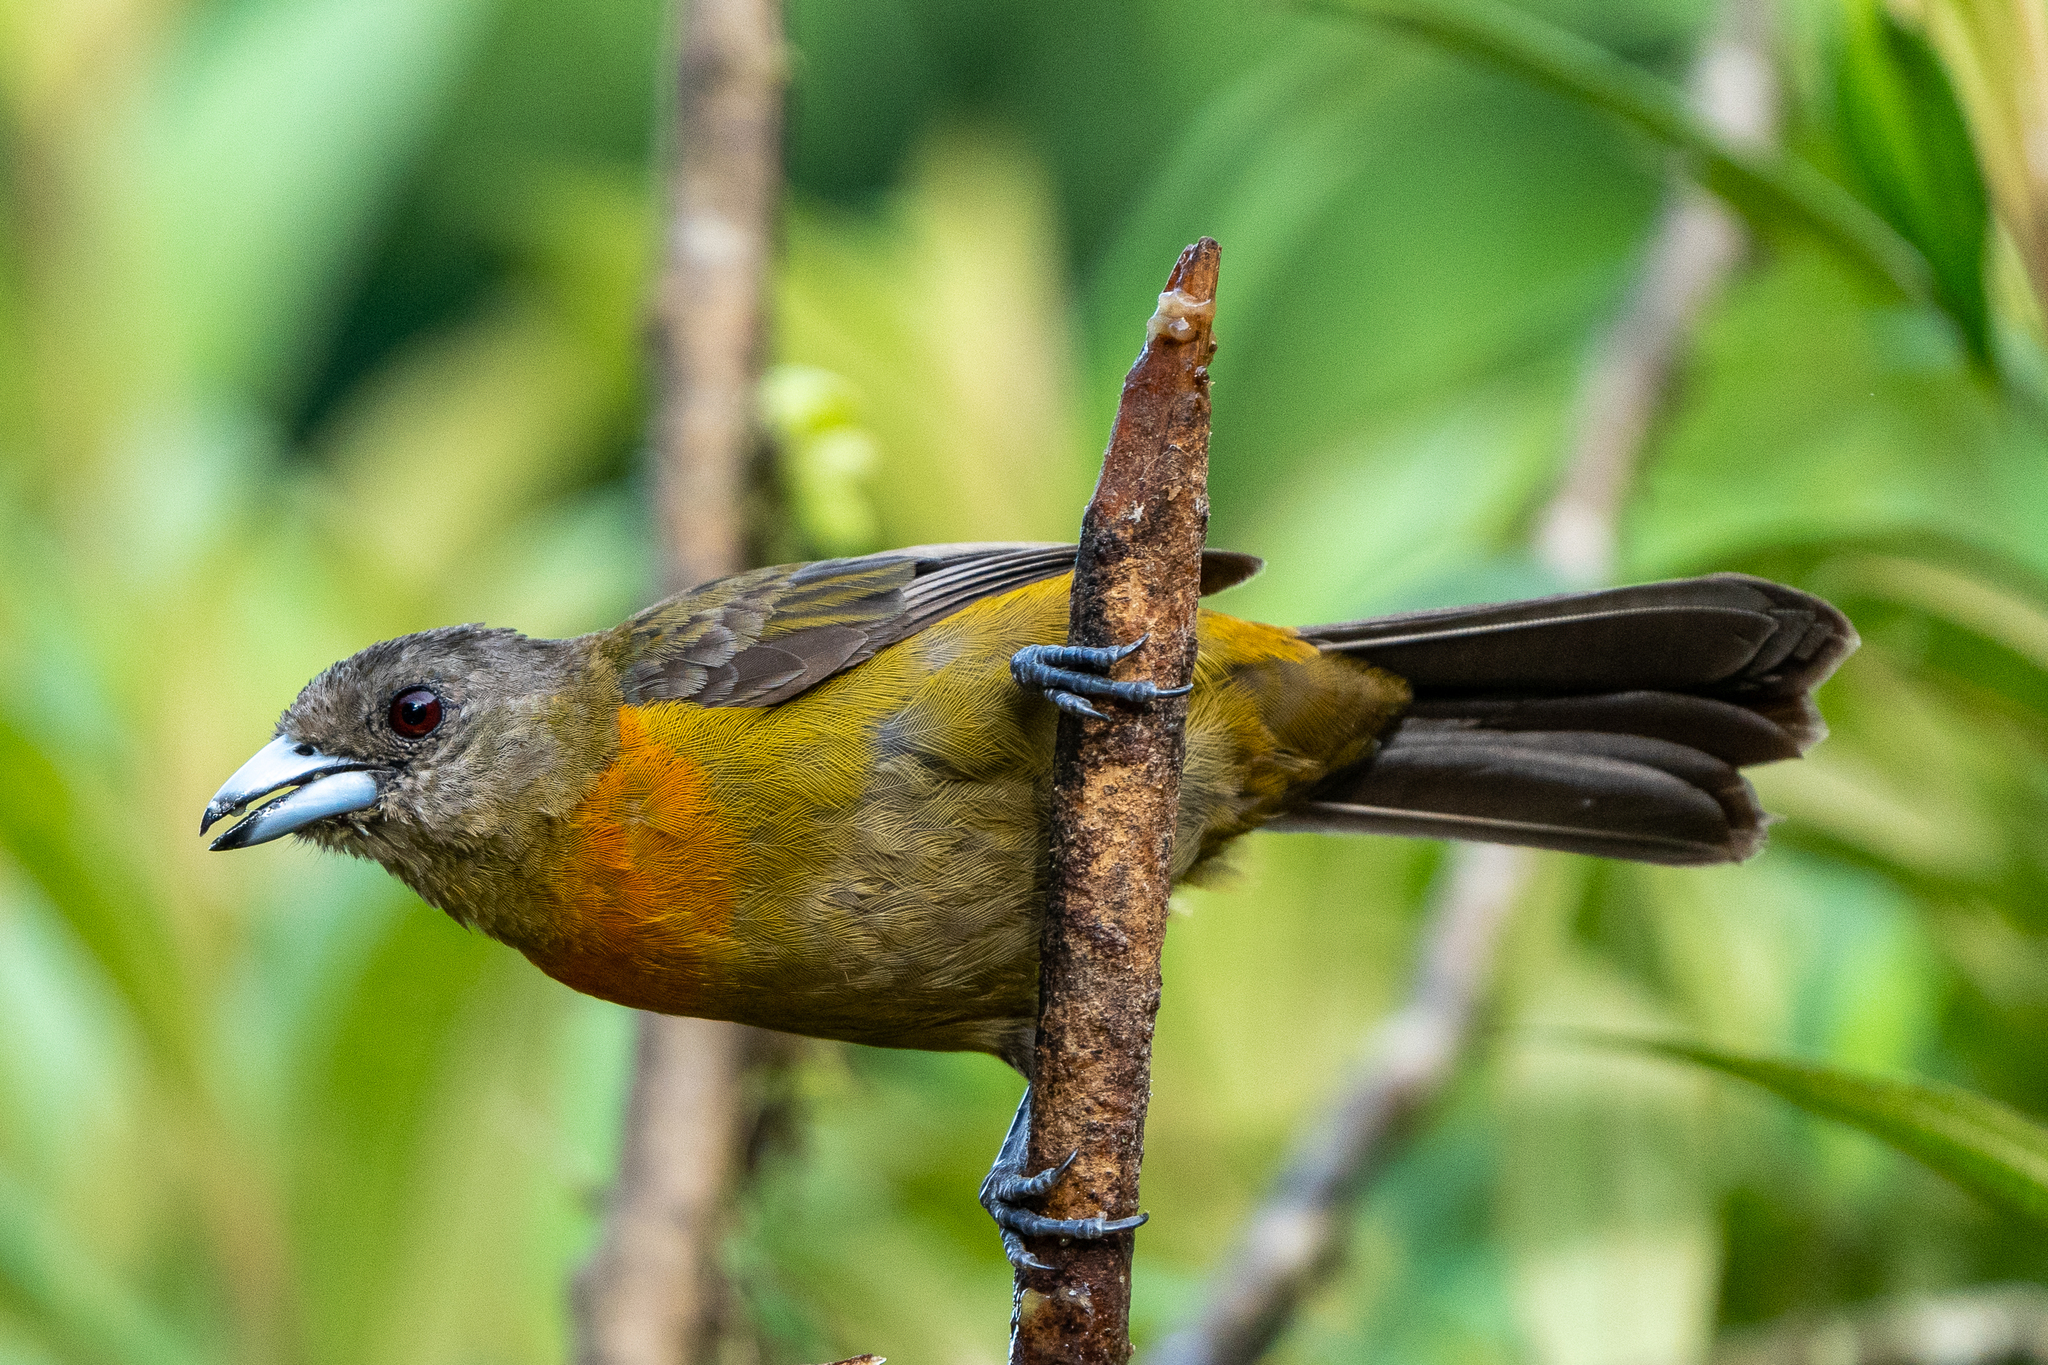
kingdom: Animalia
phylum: Chordata
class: Aves
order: Passeriformes
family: Thraupidae
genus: Ramphocelus
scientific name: Ramphocelus passerinii
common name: Passerini's tanager
